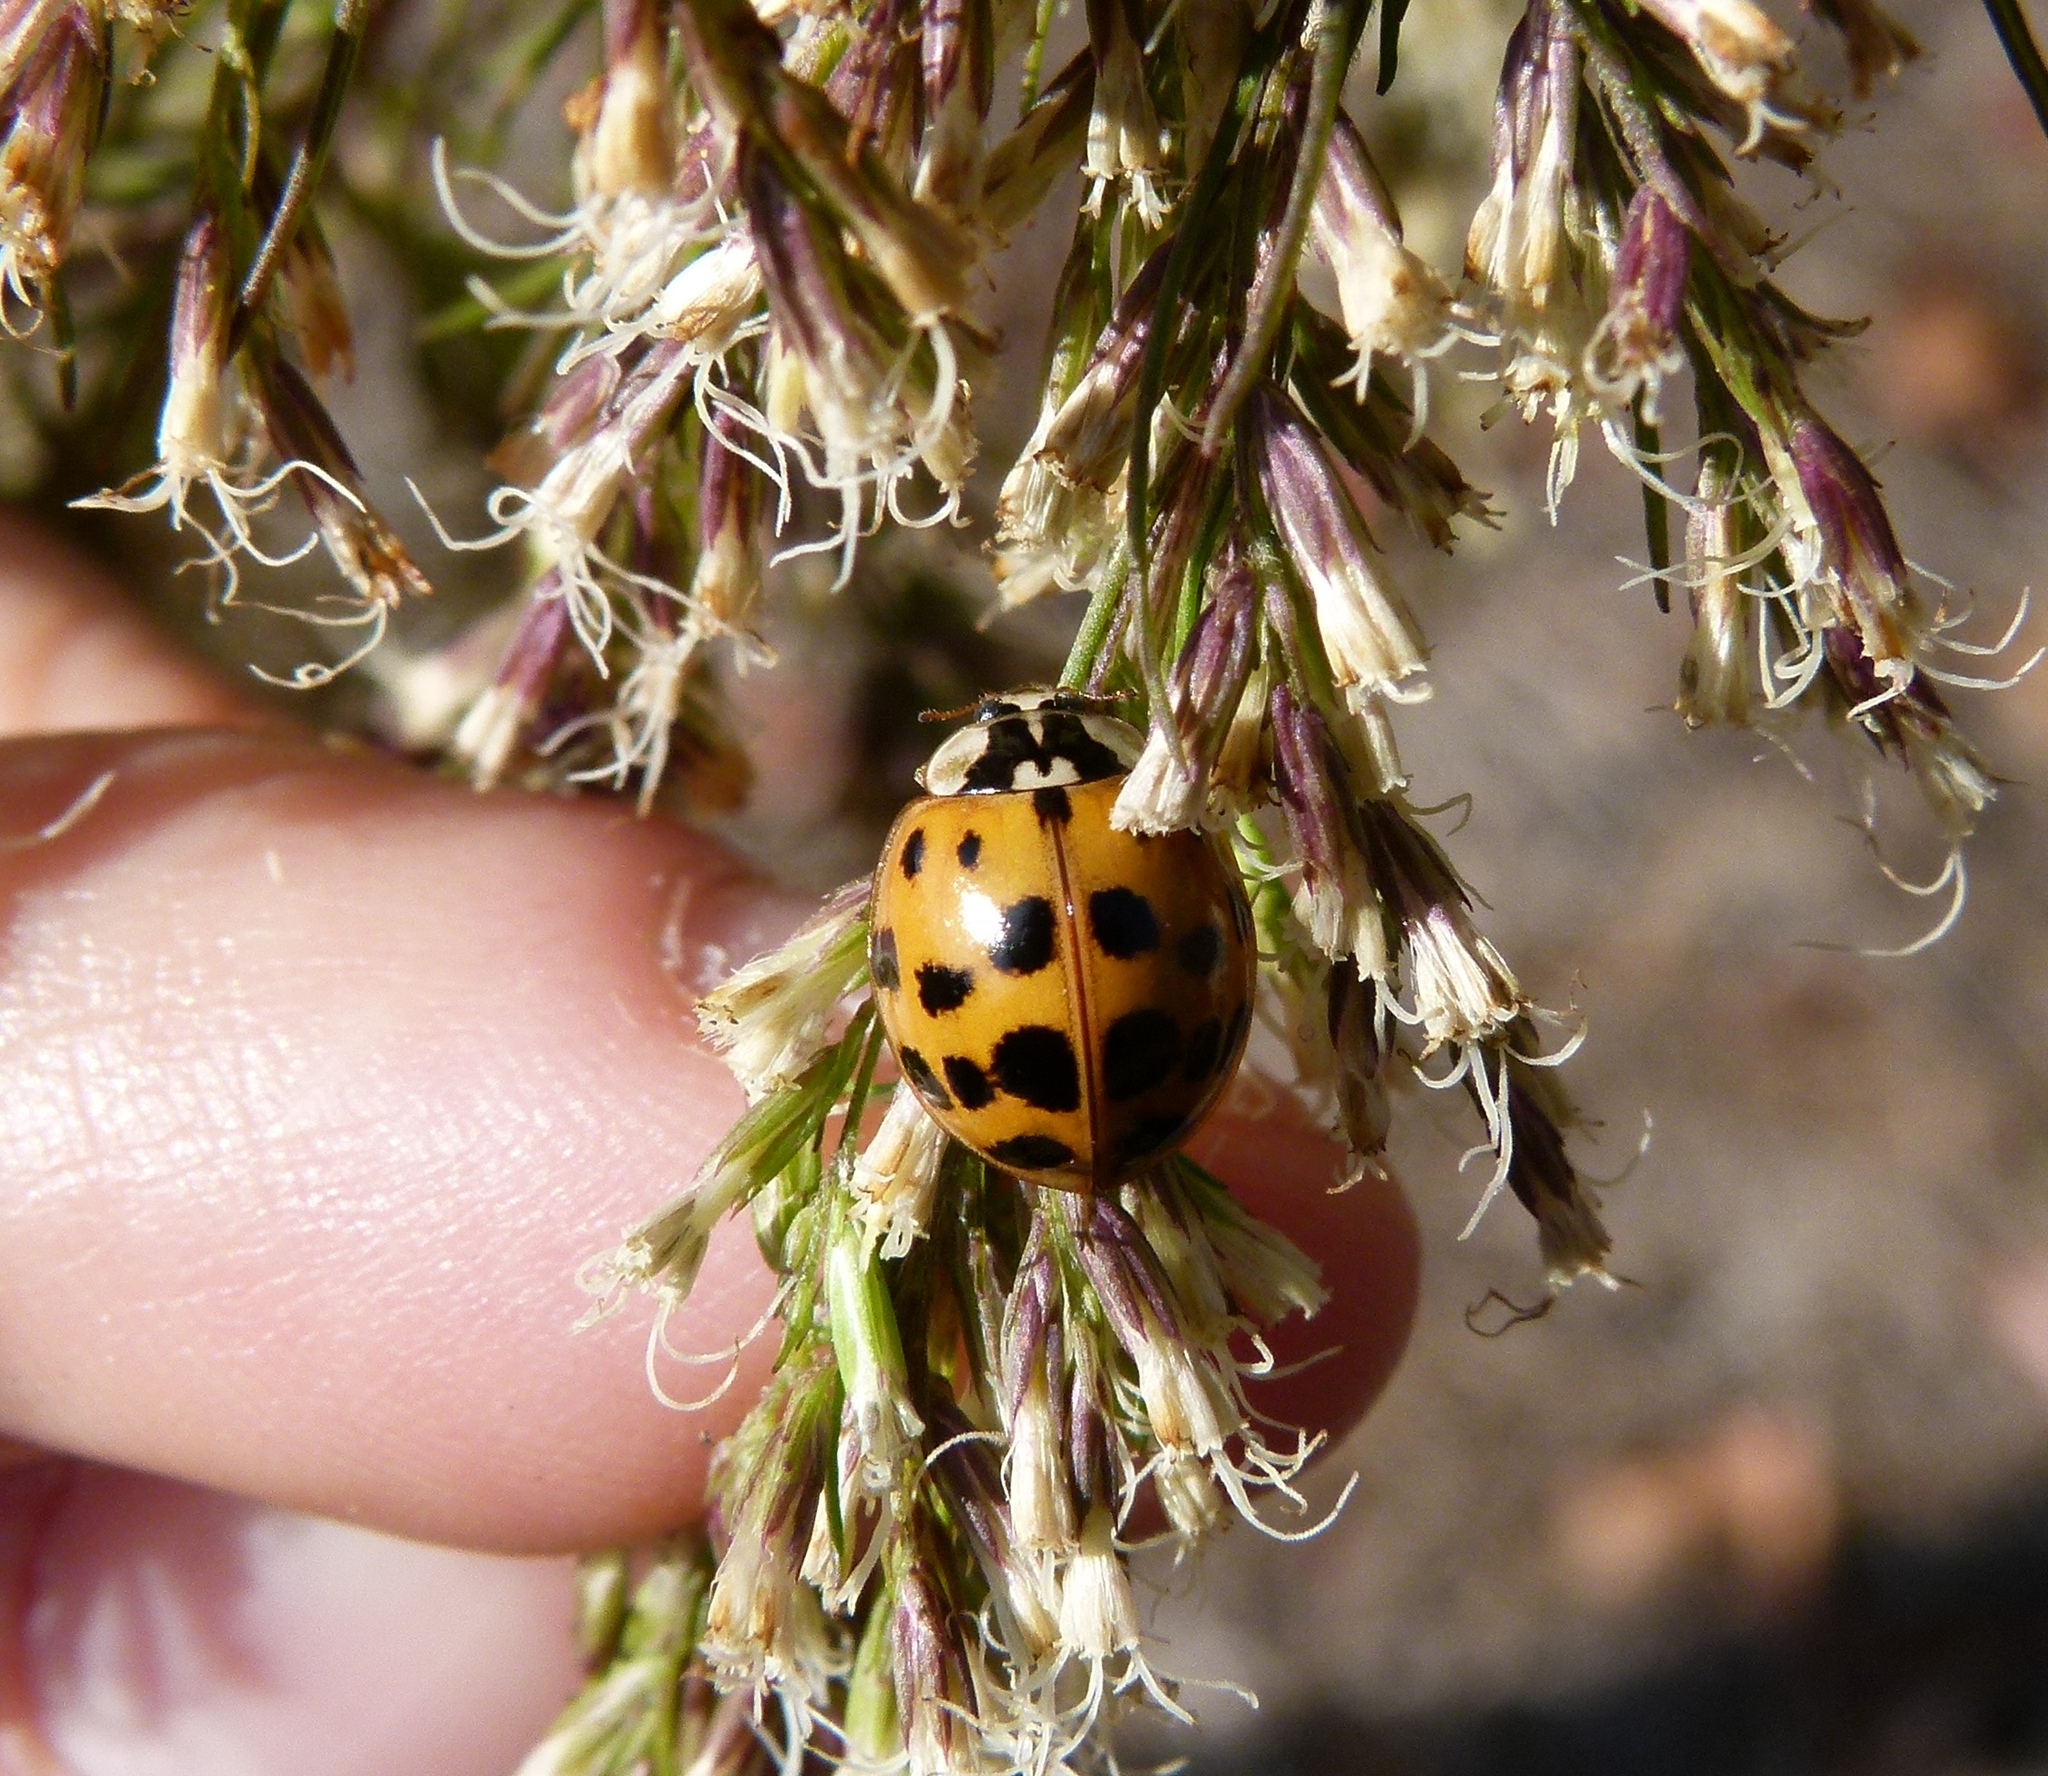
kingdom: Animalia
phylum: Arthropoda
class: Insecta
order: Coleoptera
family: Coccinellidae
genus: Harmonia
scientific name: Harmonia axyridis
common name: Harlequin ladybird
